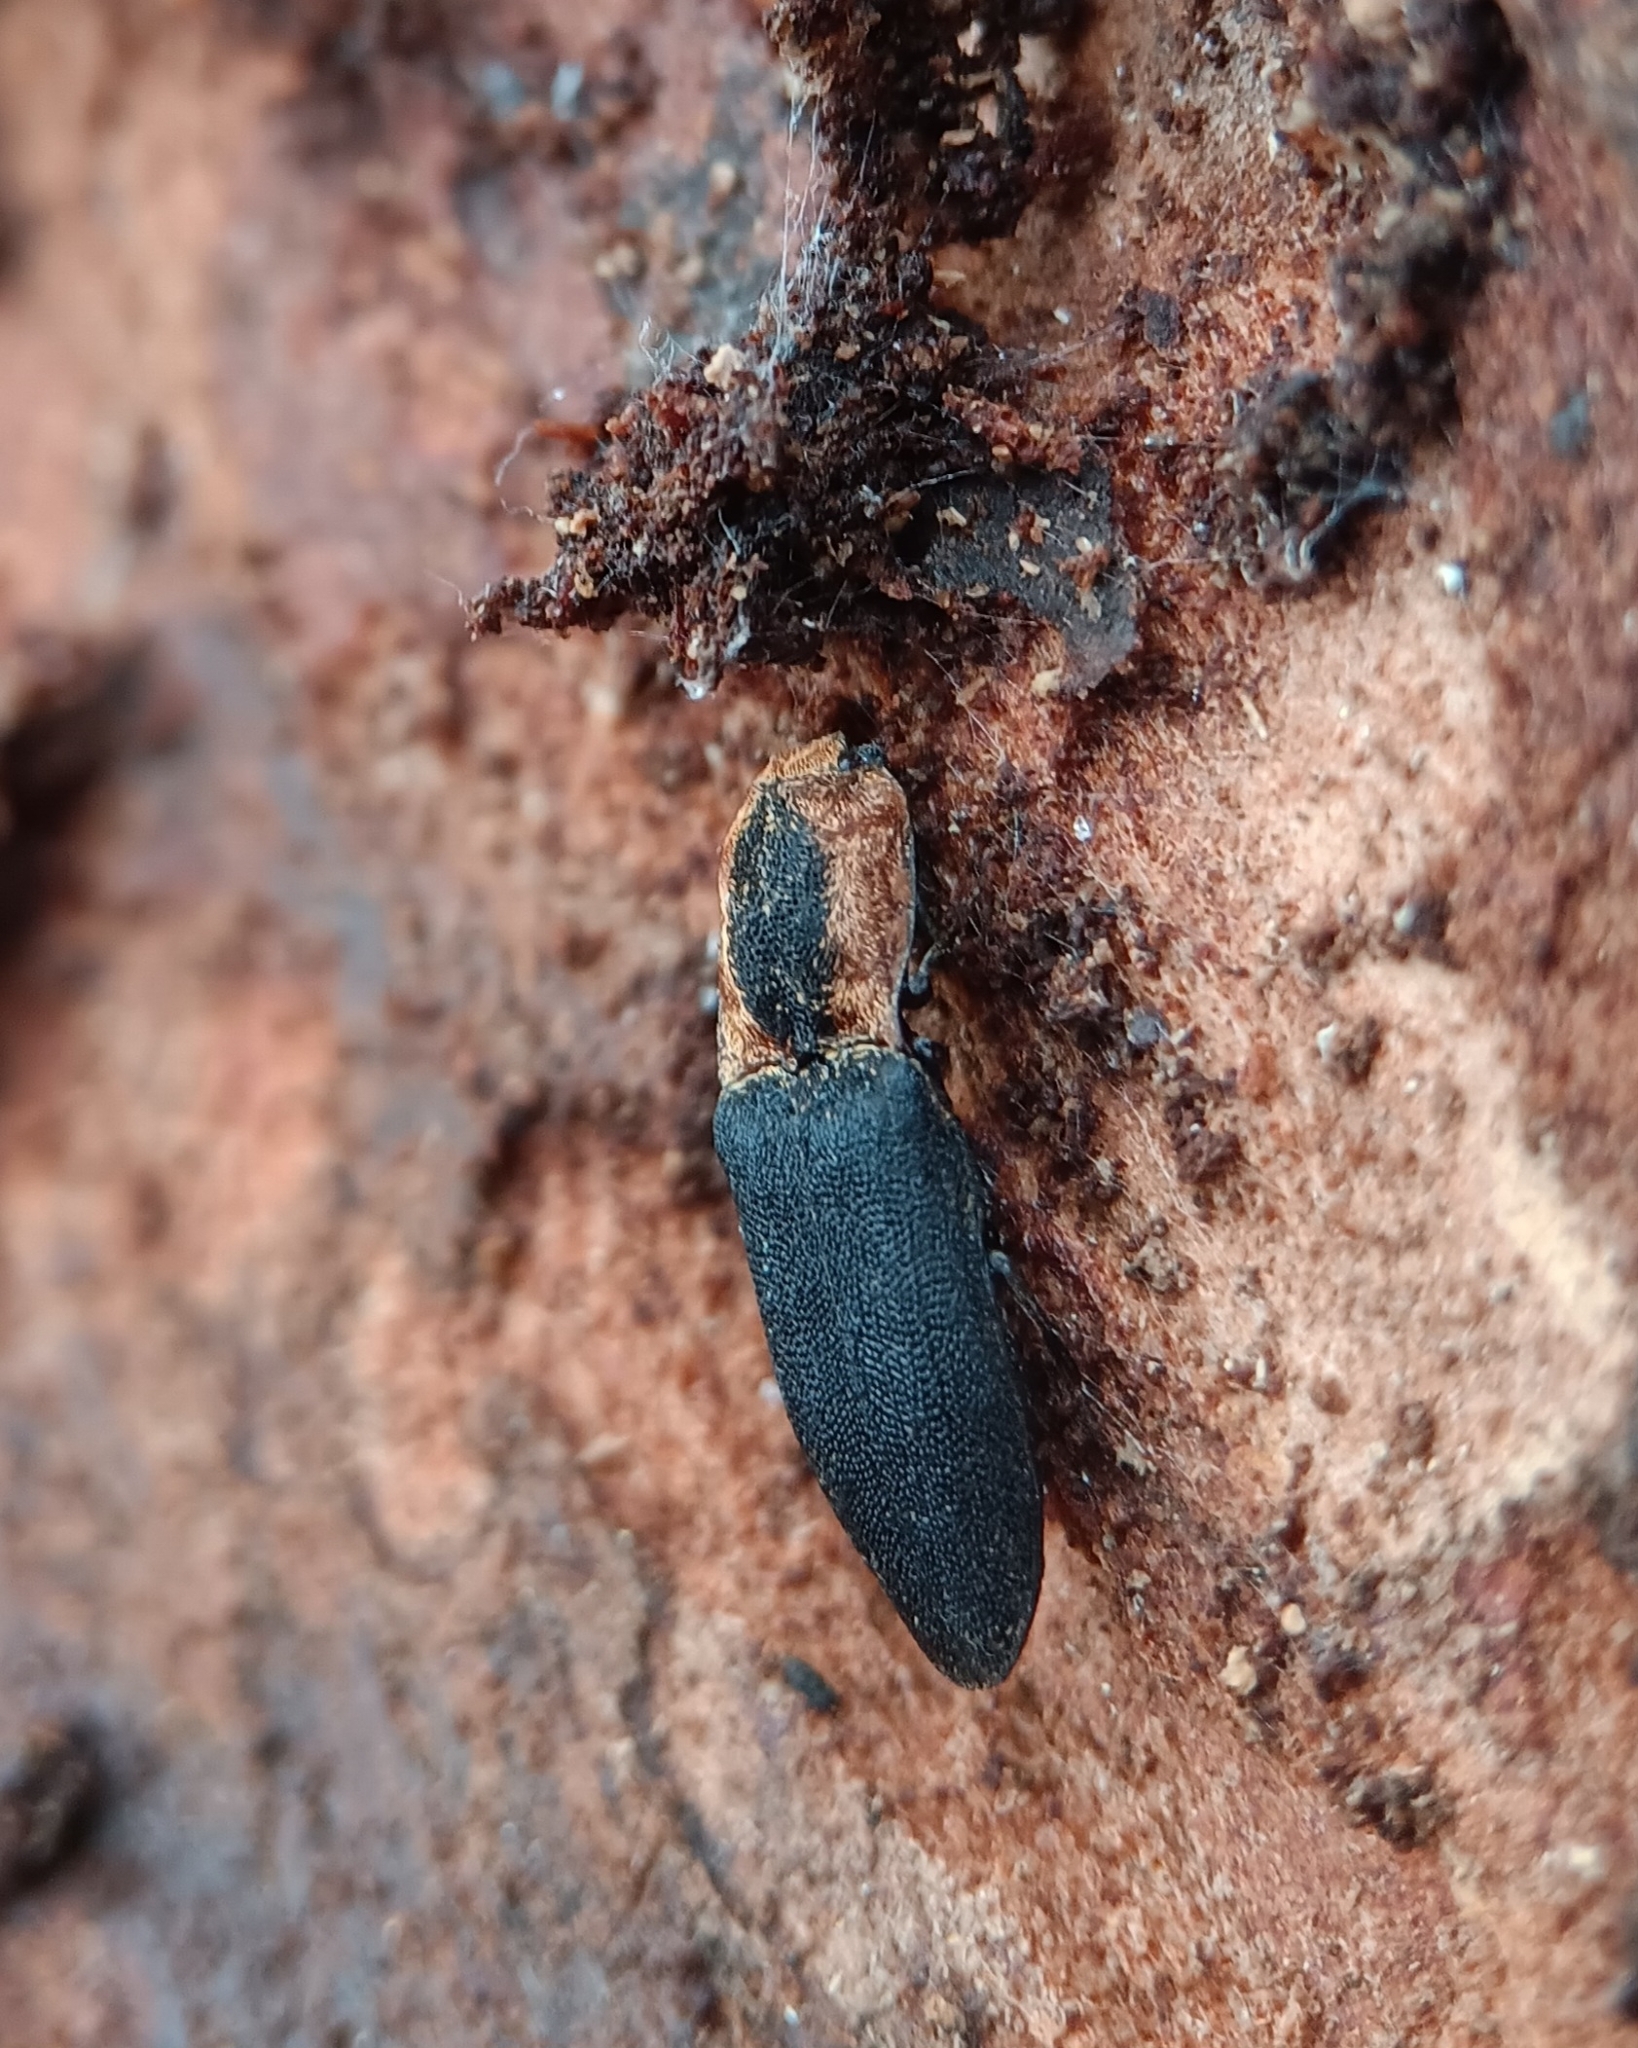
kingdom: Animalia
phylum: Arthropoda
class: Insecta
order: Coleoptera
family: Elateridae
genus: Lacon
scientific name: Lacon discoideus
